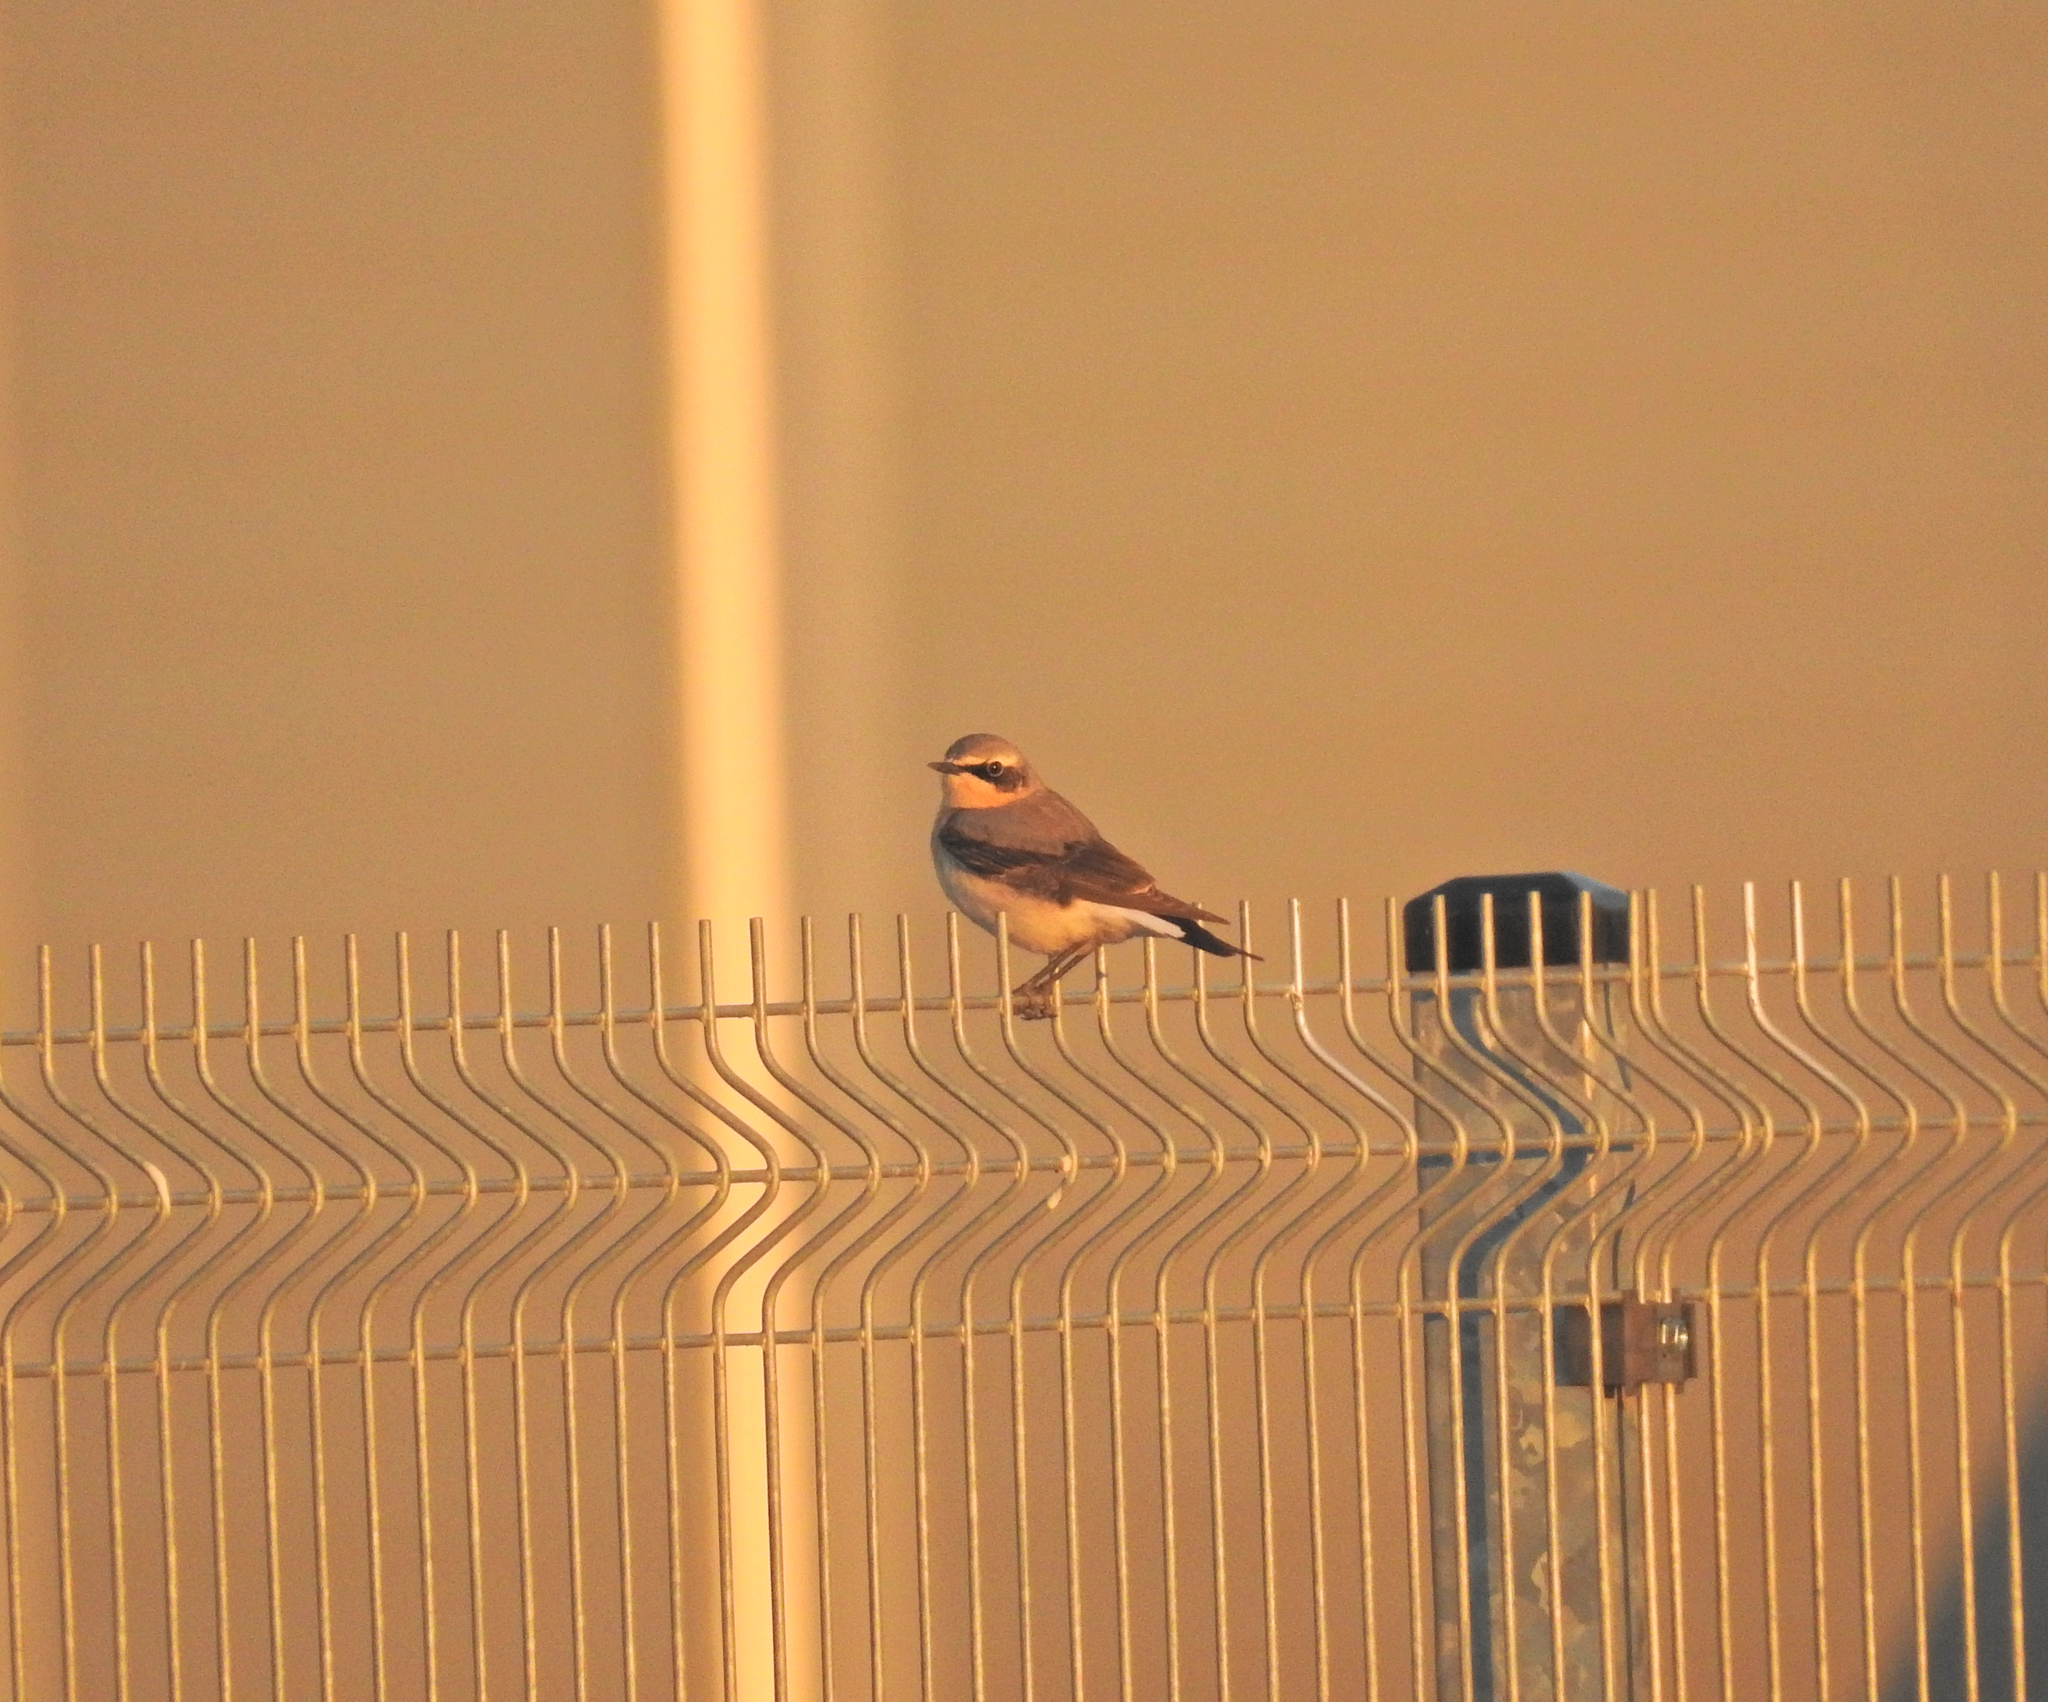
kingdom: Animalia
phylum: Chordata
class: Aves
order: Passeriformes
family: Muscicapidae
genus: Oenanthe
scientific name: Oenanthe oenanthe
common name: Northern wheatear
